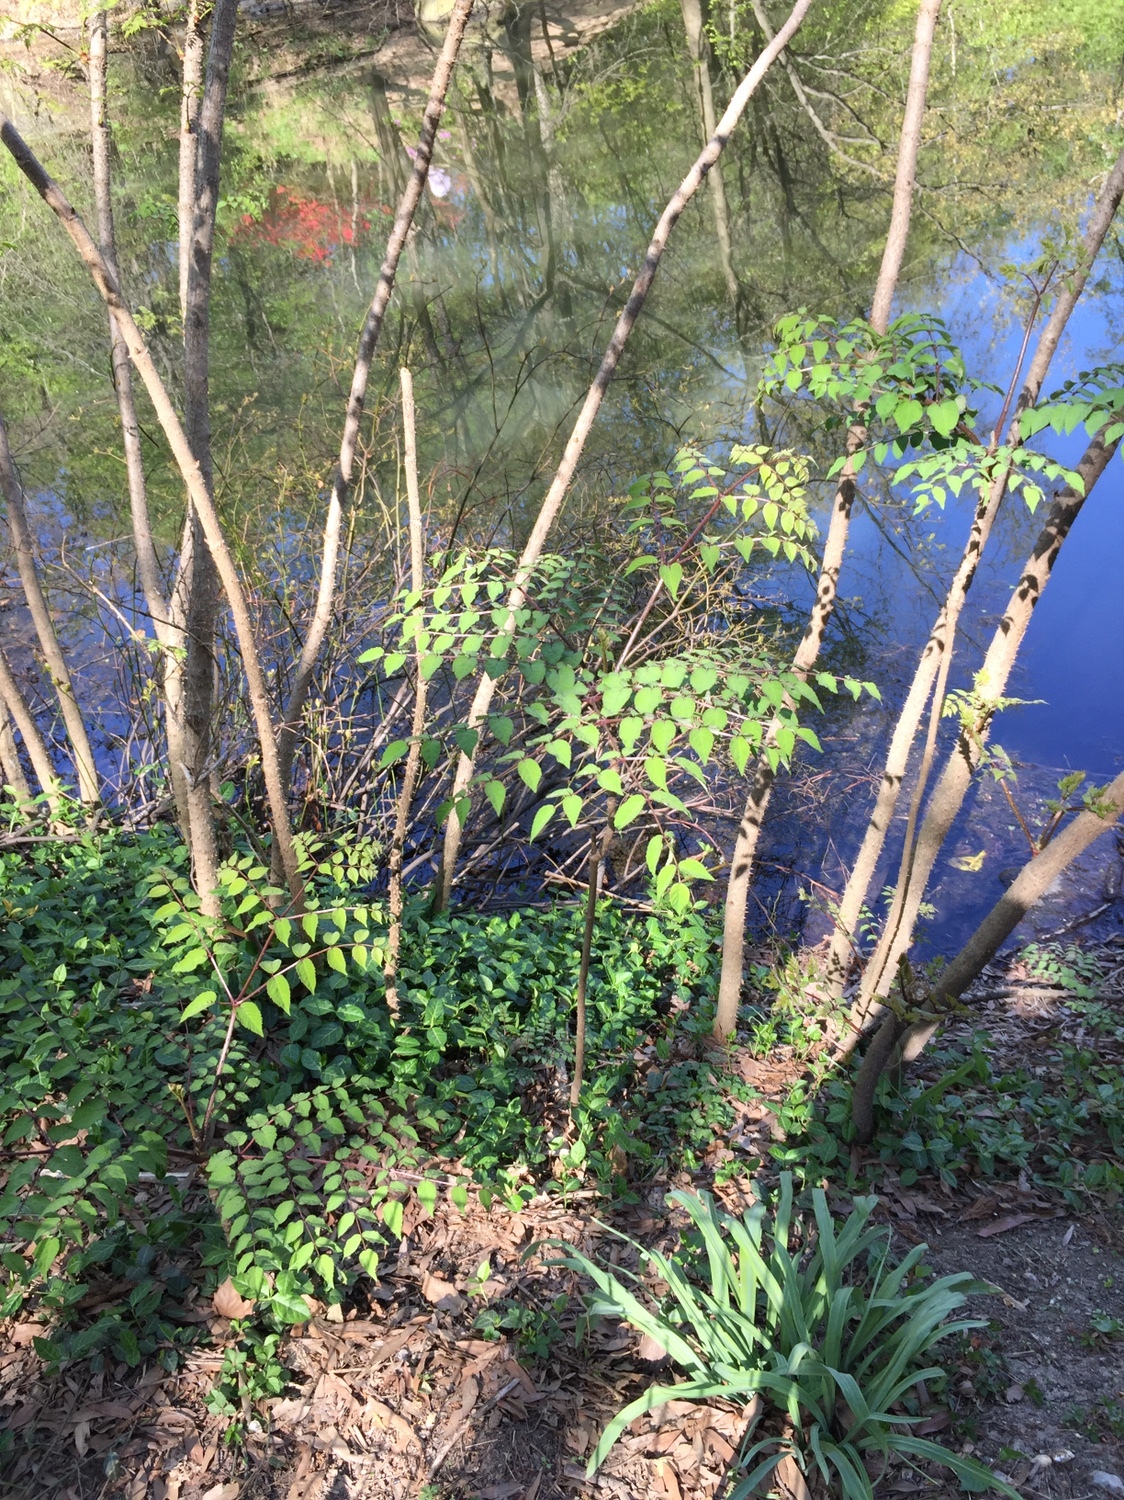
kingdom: Plantae
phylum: Tracheophyta
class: Magnoliopsida
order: Apiales
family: Araliaceae
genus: Aralia
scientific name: Aralia elata
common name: Japanese angelica-tree
